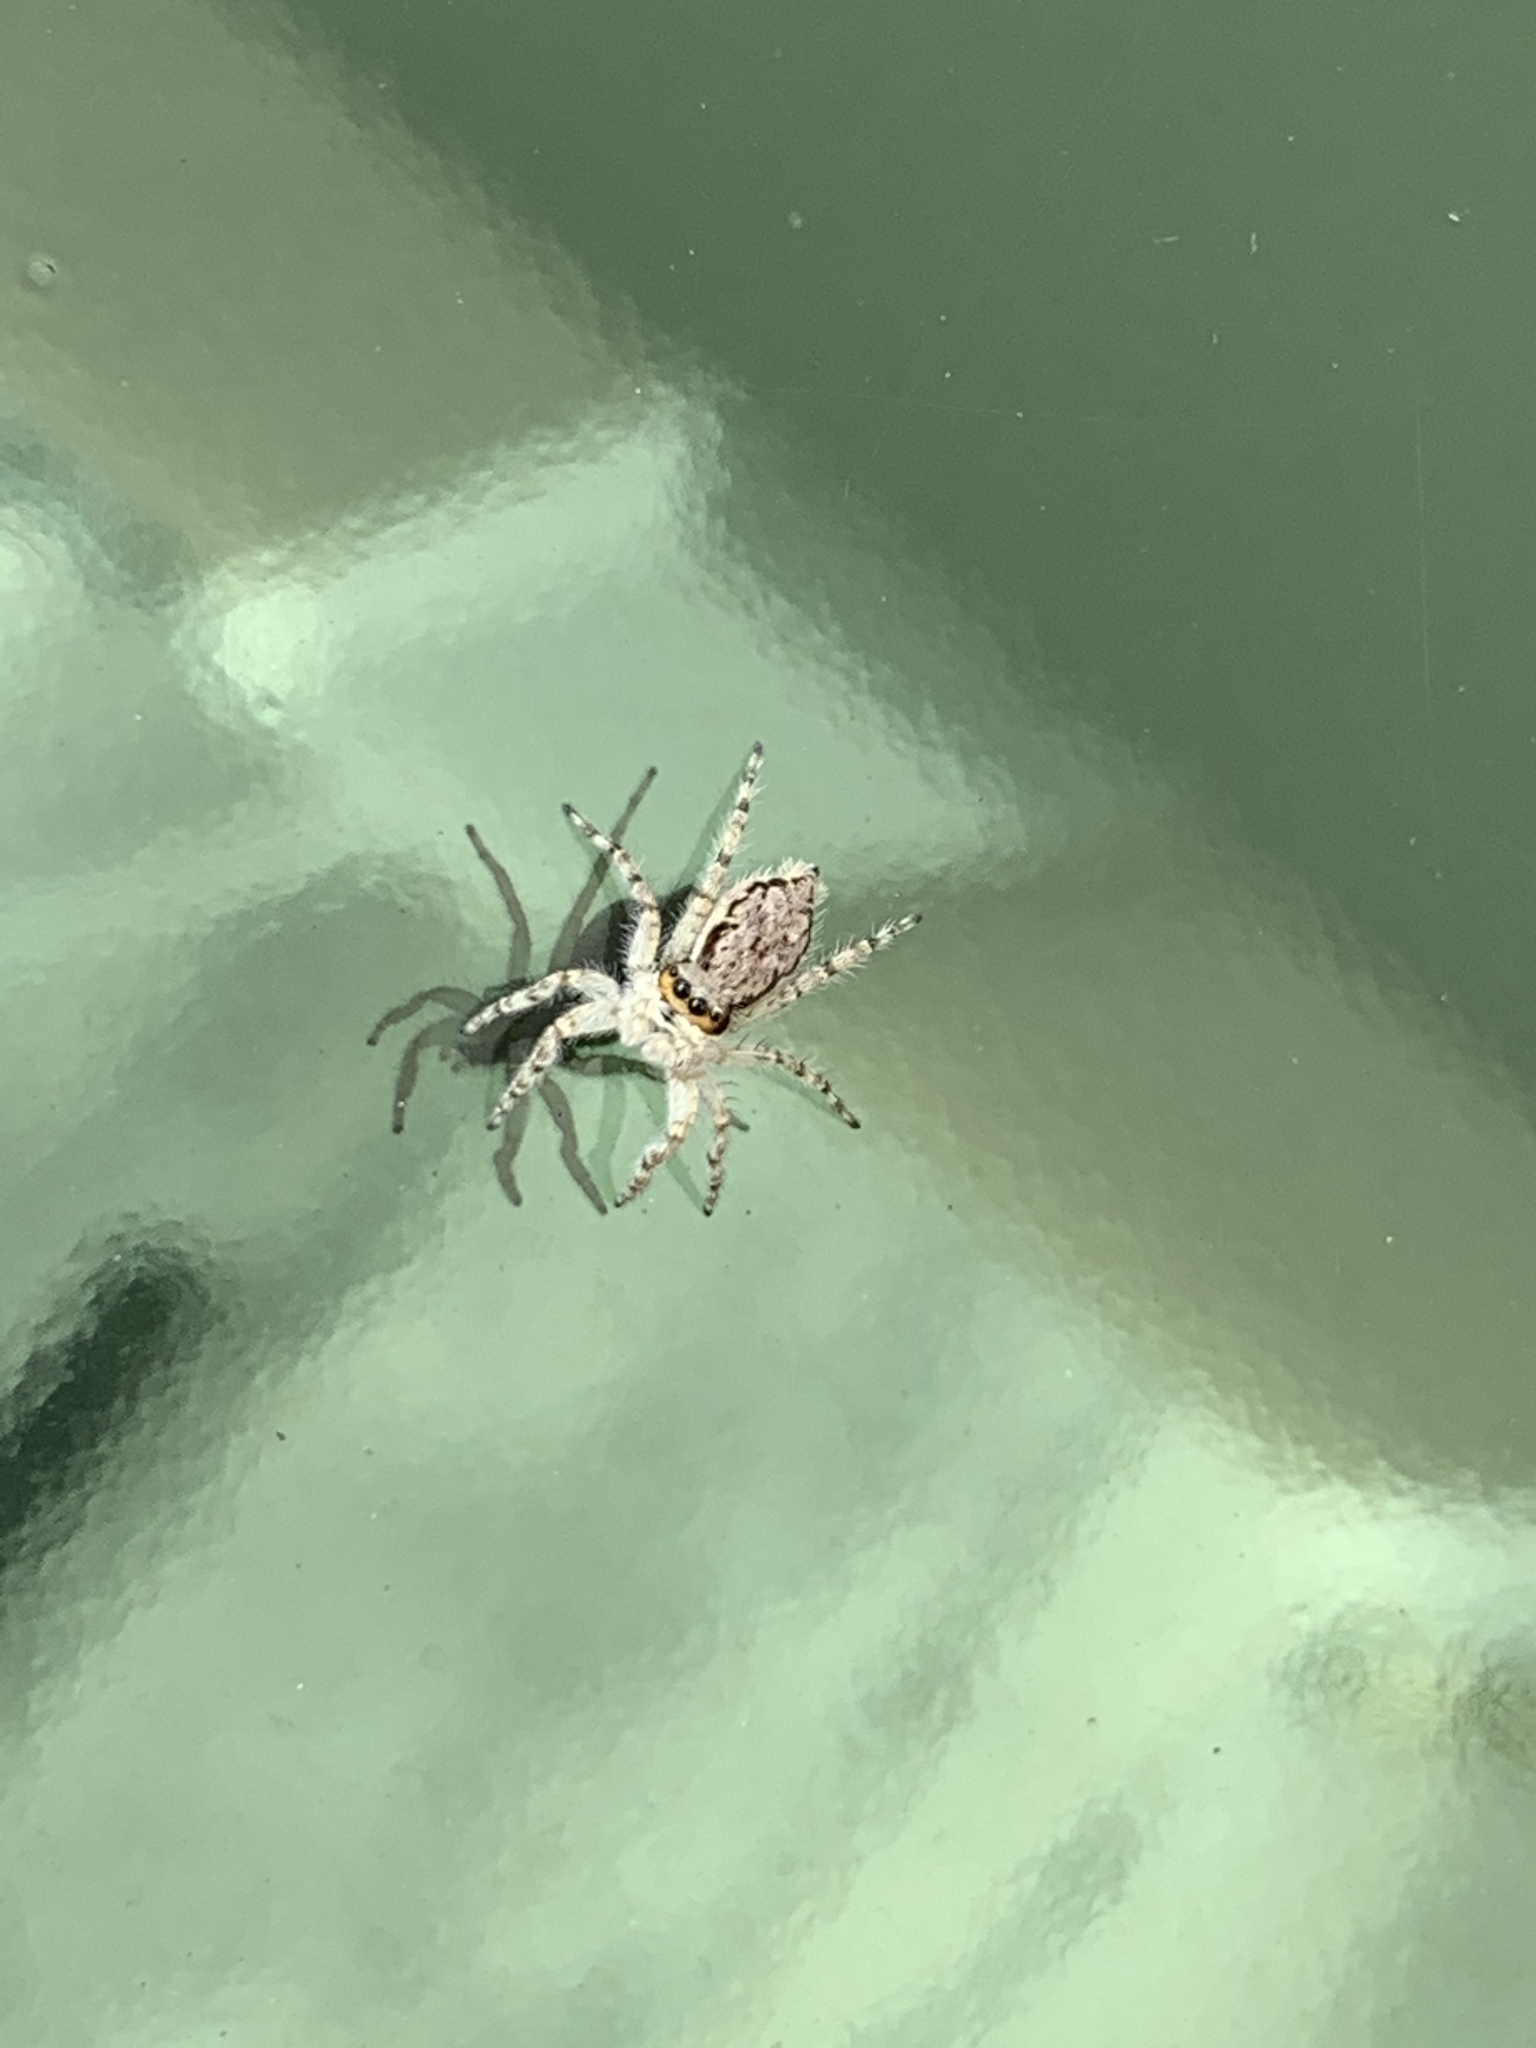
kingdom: Animalia
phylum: Arthropoda
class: Arachnida
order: Araneae
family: Salticidae
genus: Menemerus
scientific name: Menemerus bivittatus
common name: Gray wall jumper
